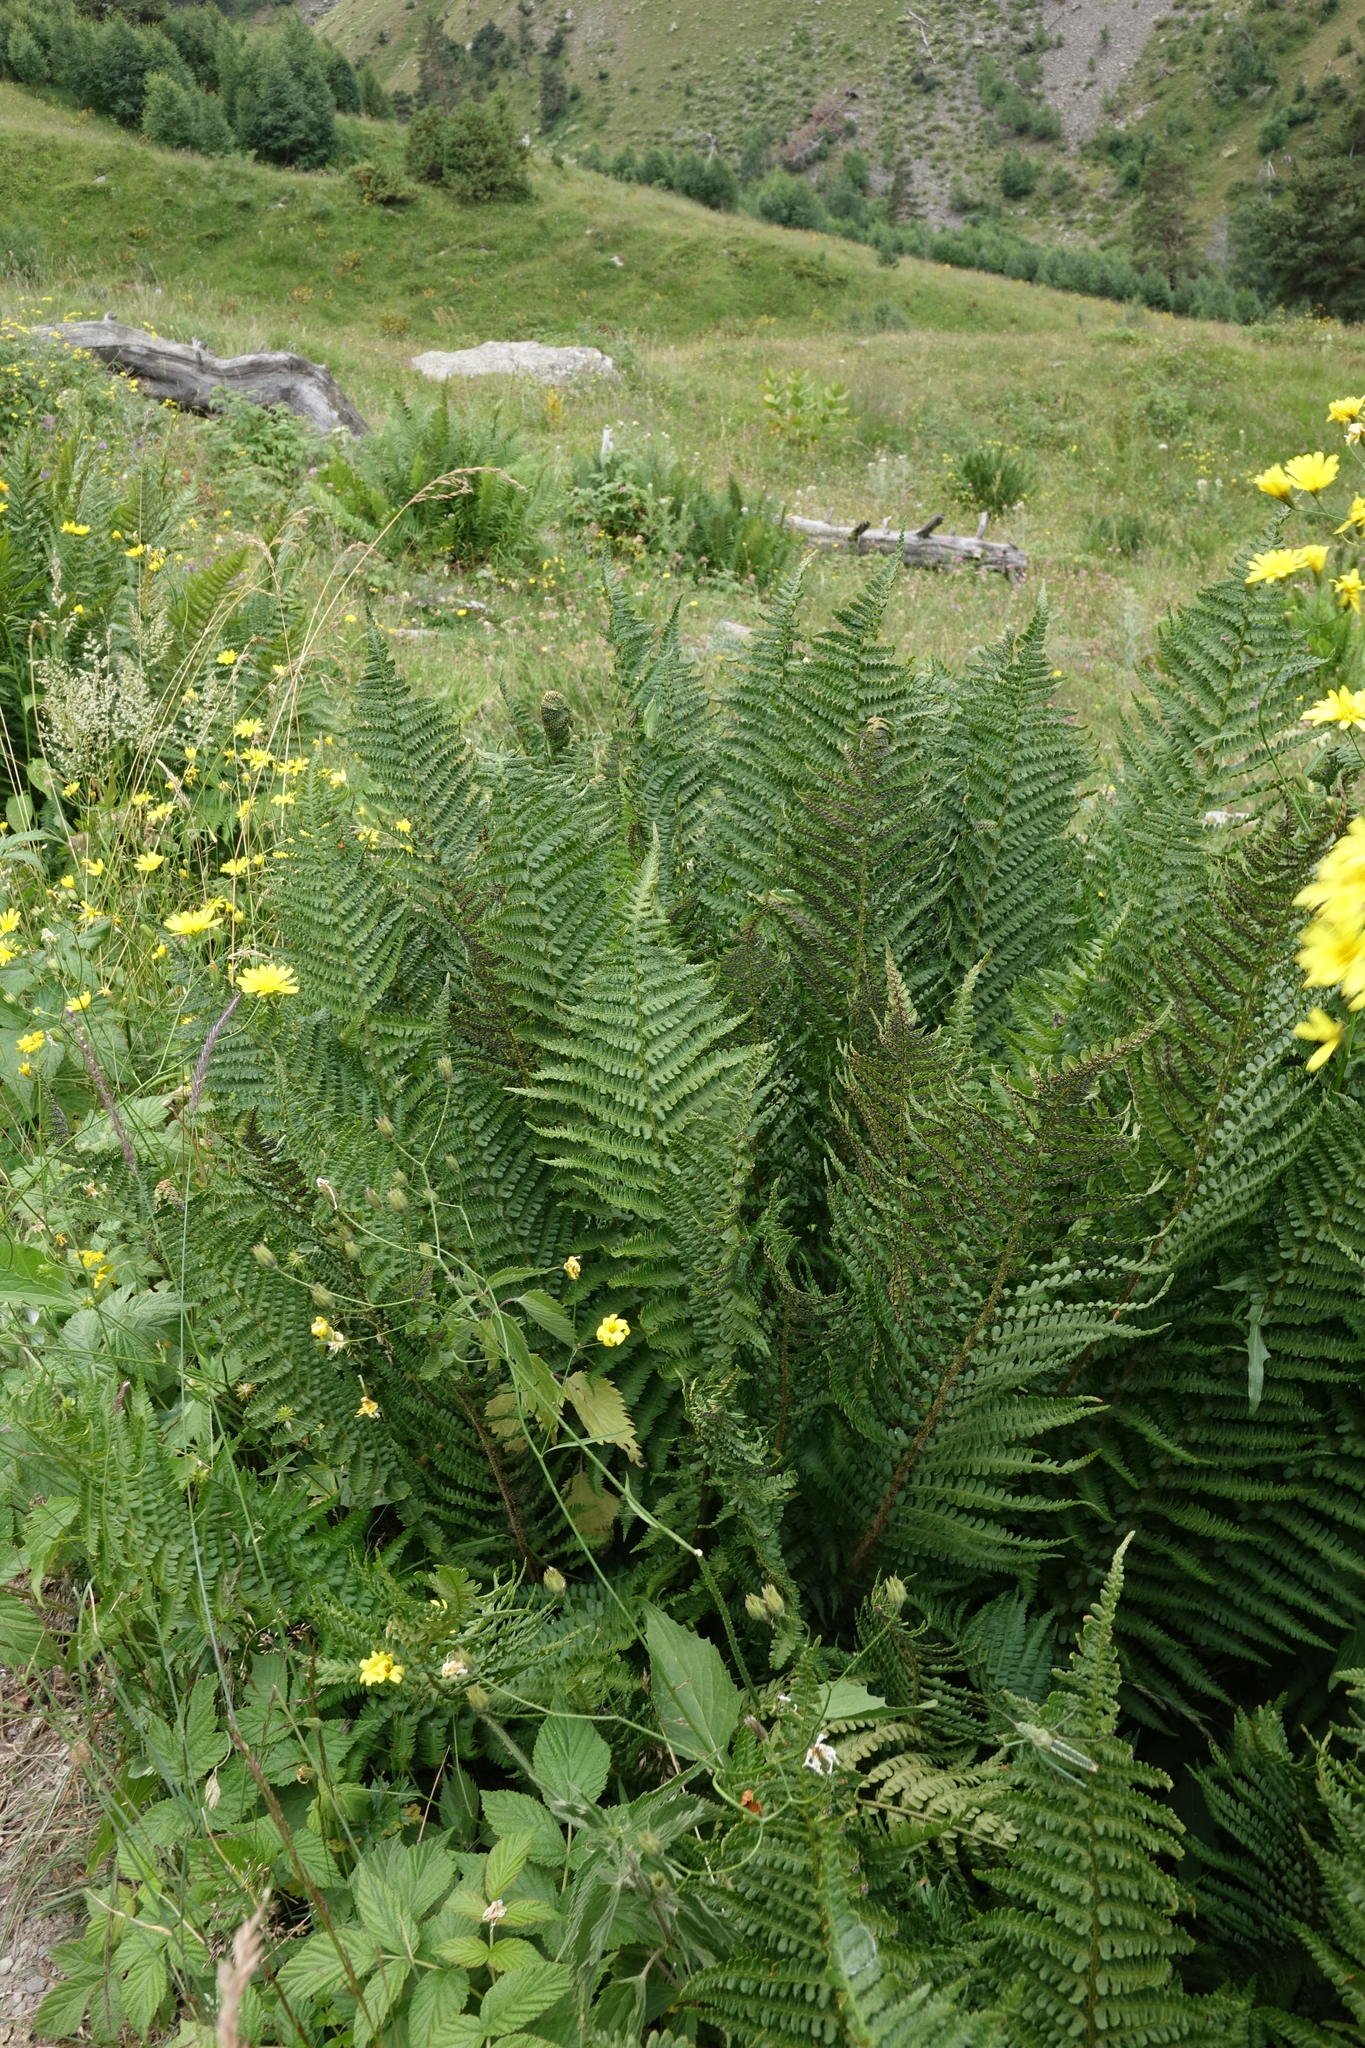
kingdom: Plantae
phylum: Tracheophyta
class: Polypodiopsida
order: Polypodiales
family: Dryopteridaceae
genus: Dryopteris
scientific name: Dryopteris filix-mas
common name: Male fern
